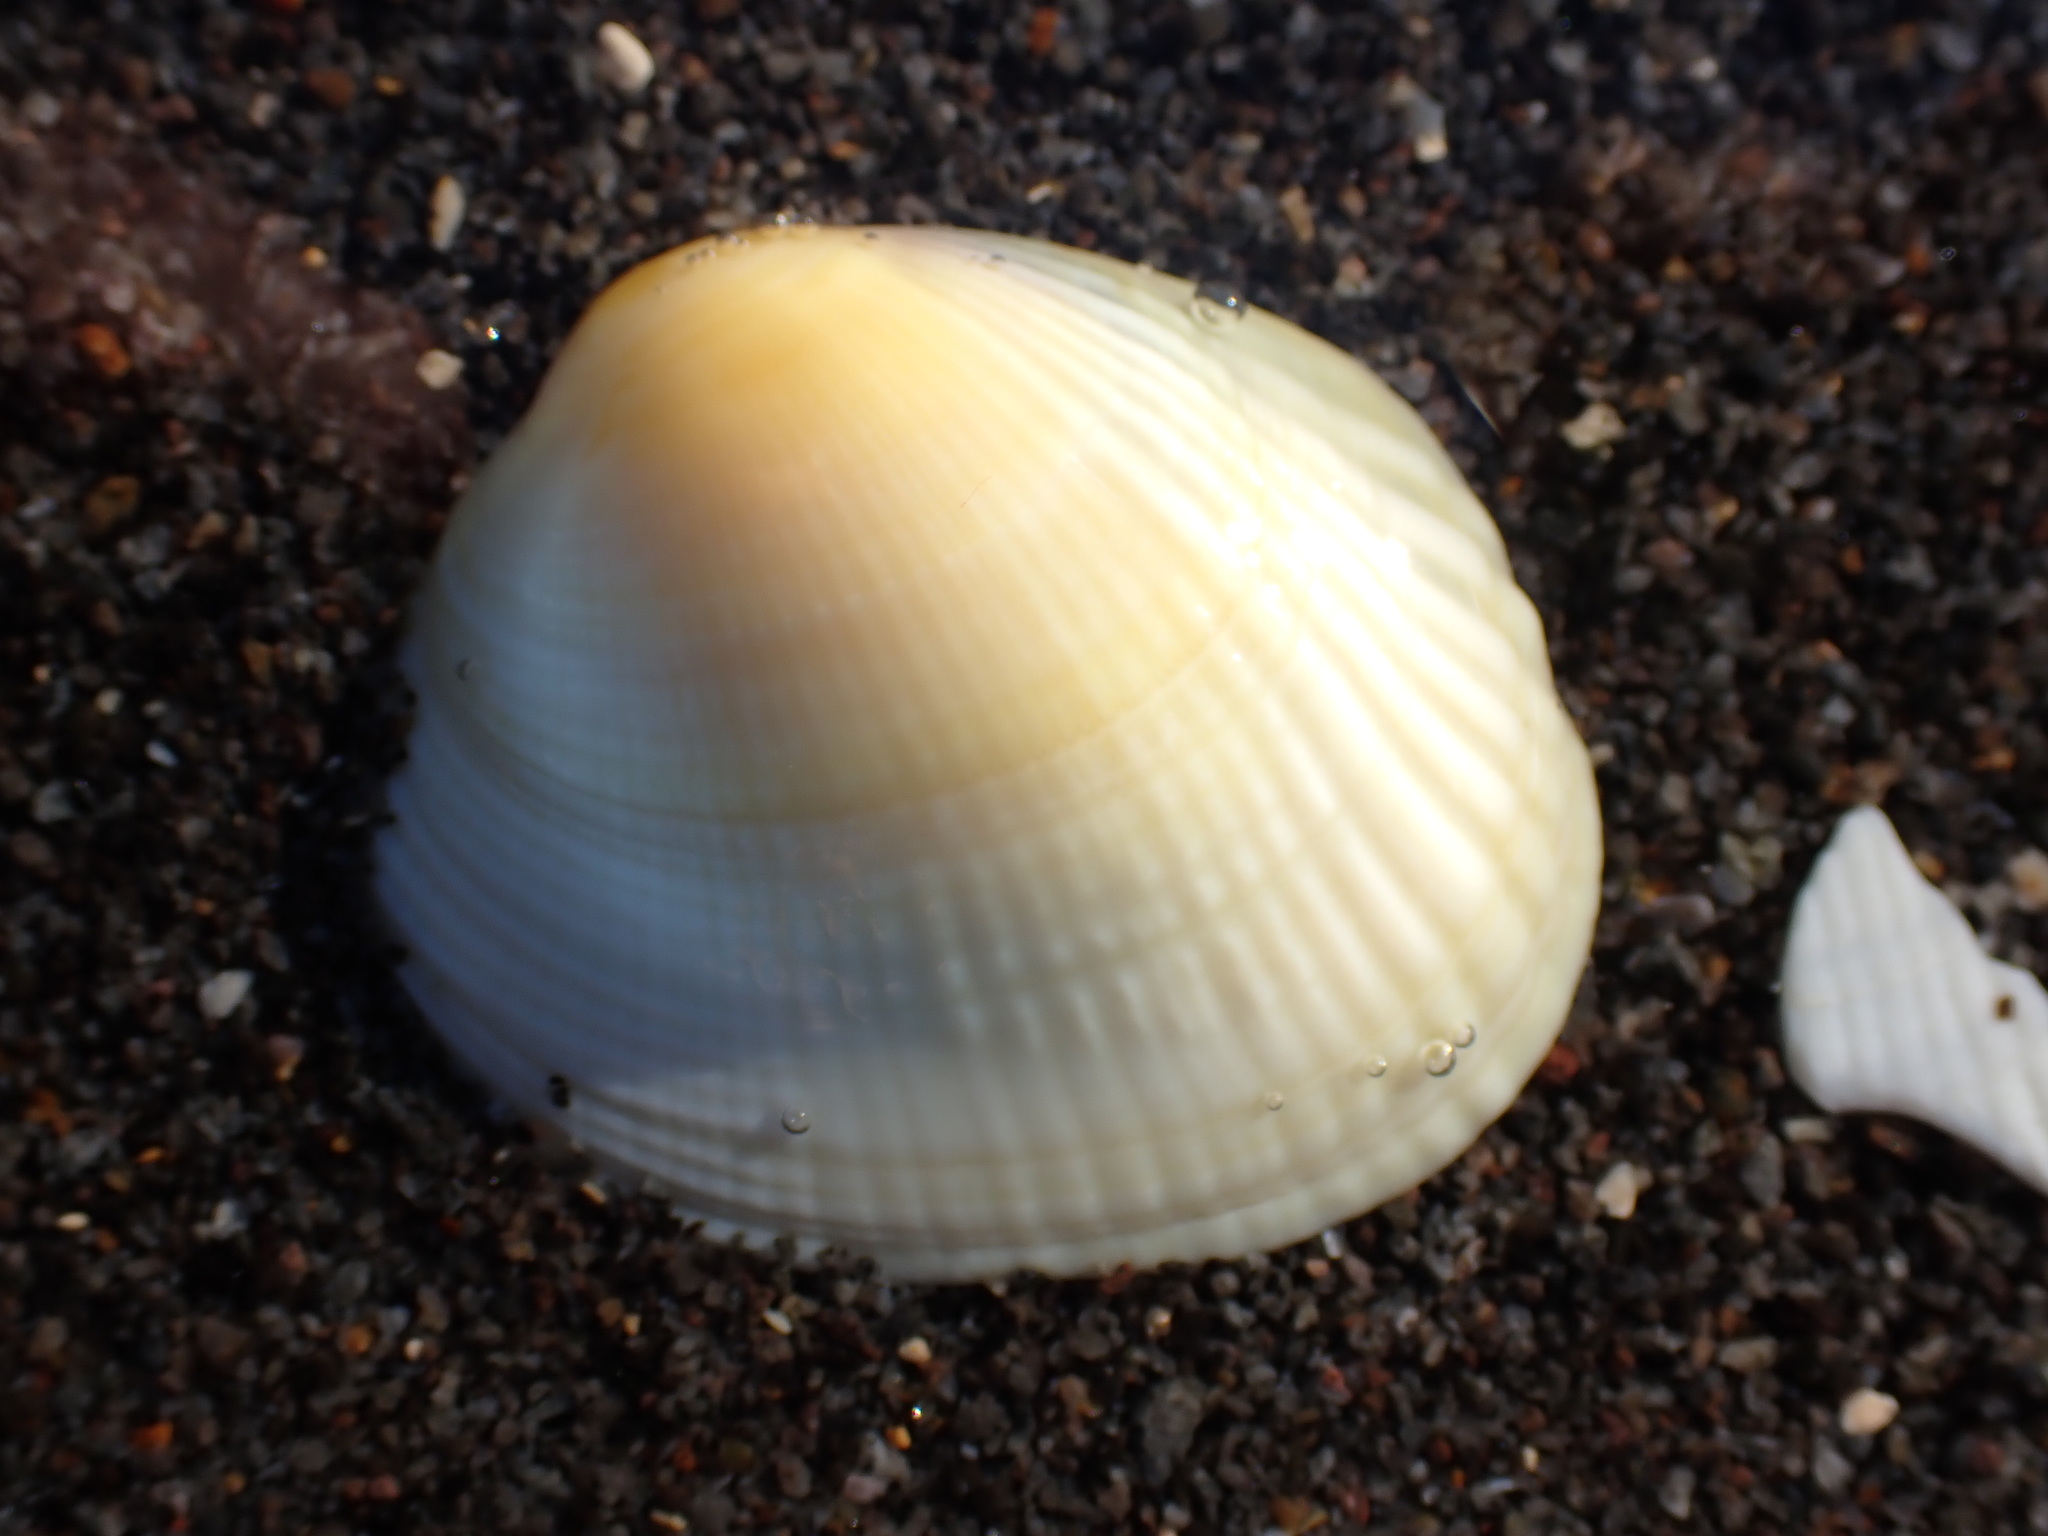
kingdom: Animalia
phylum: Mollusca
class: Bivalvia
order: Venerida
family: Veneridae
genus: Leukoma
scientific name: Leukoma crassicosta
